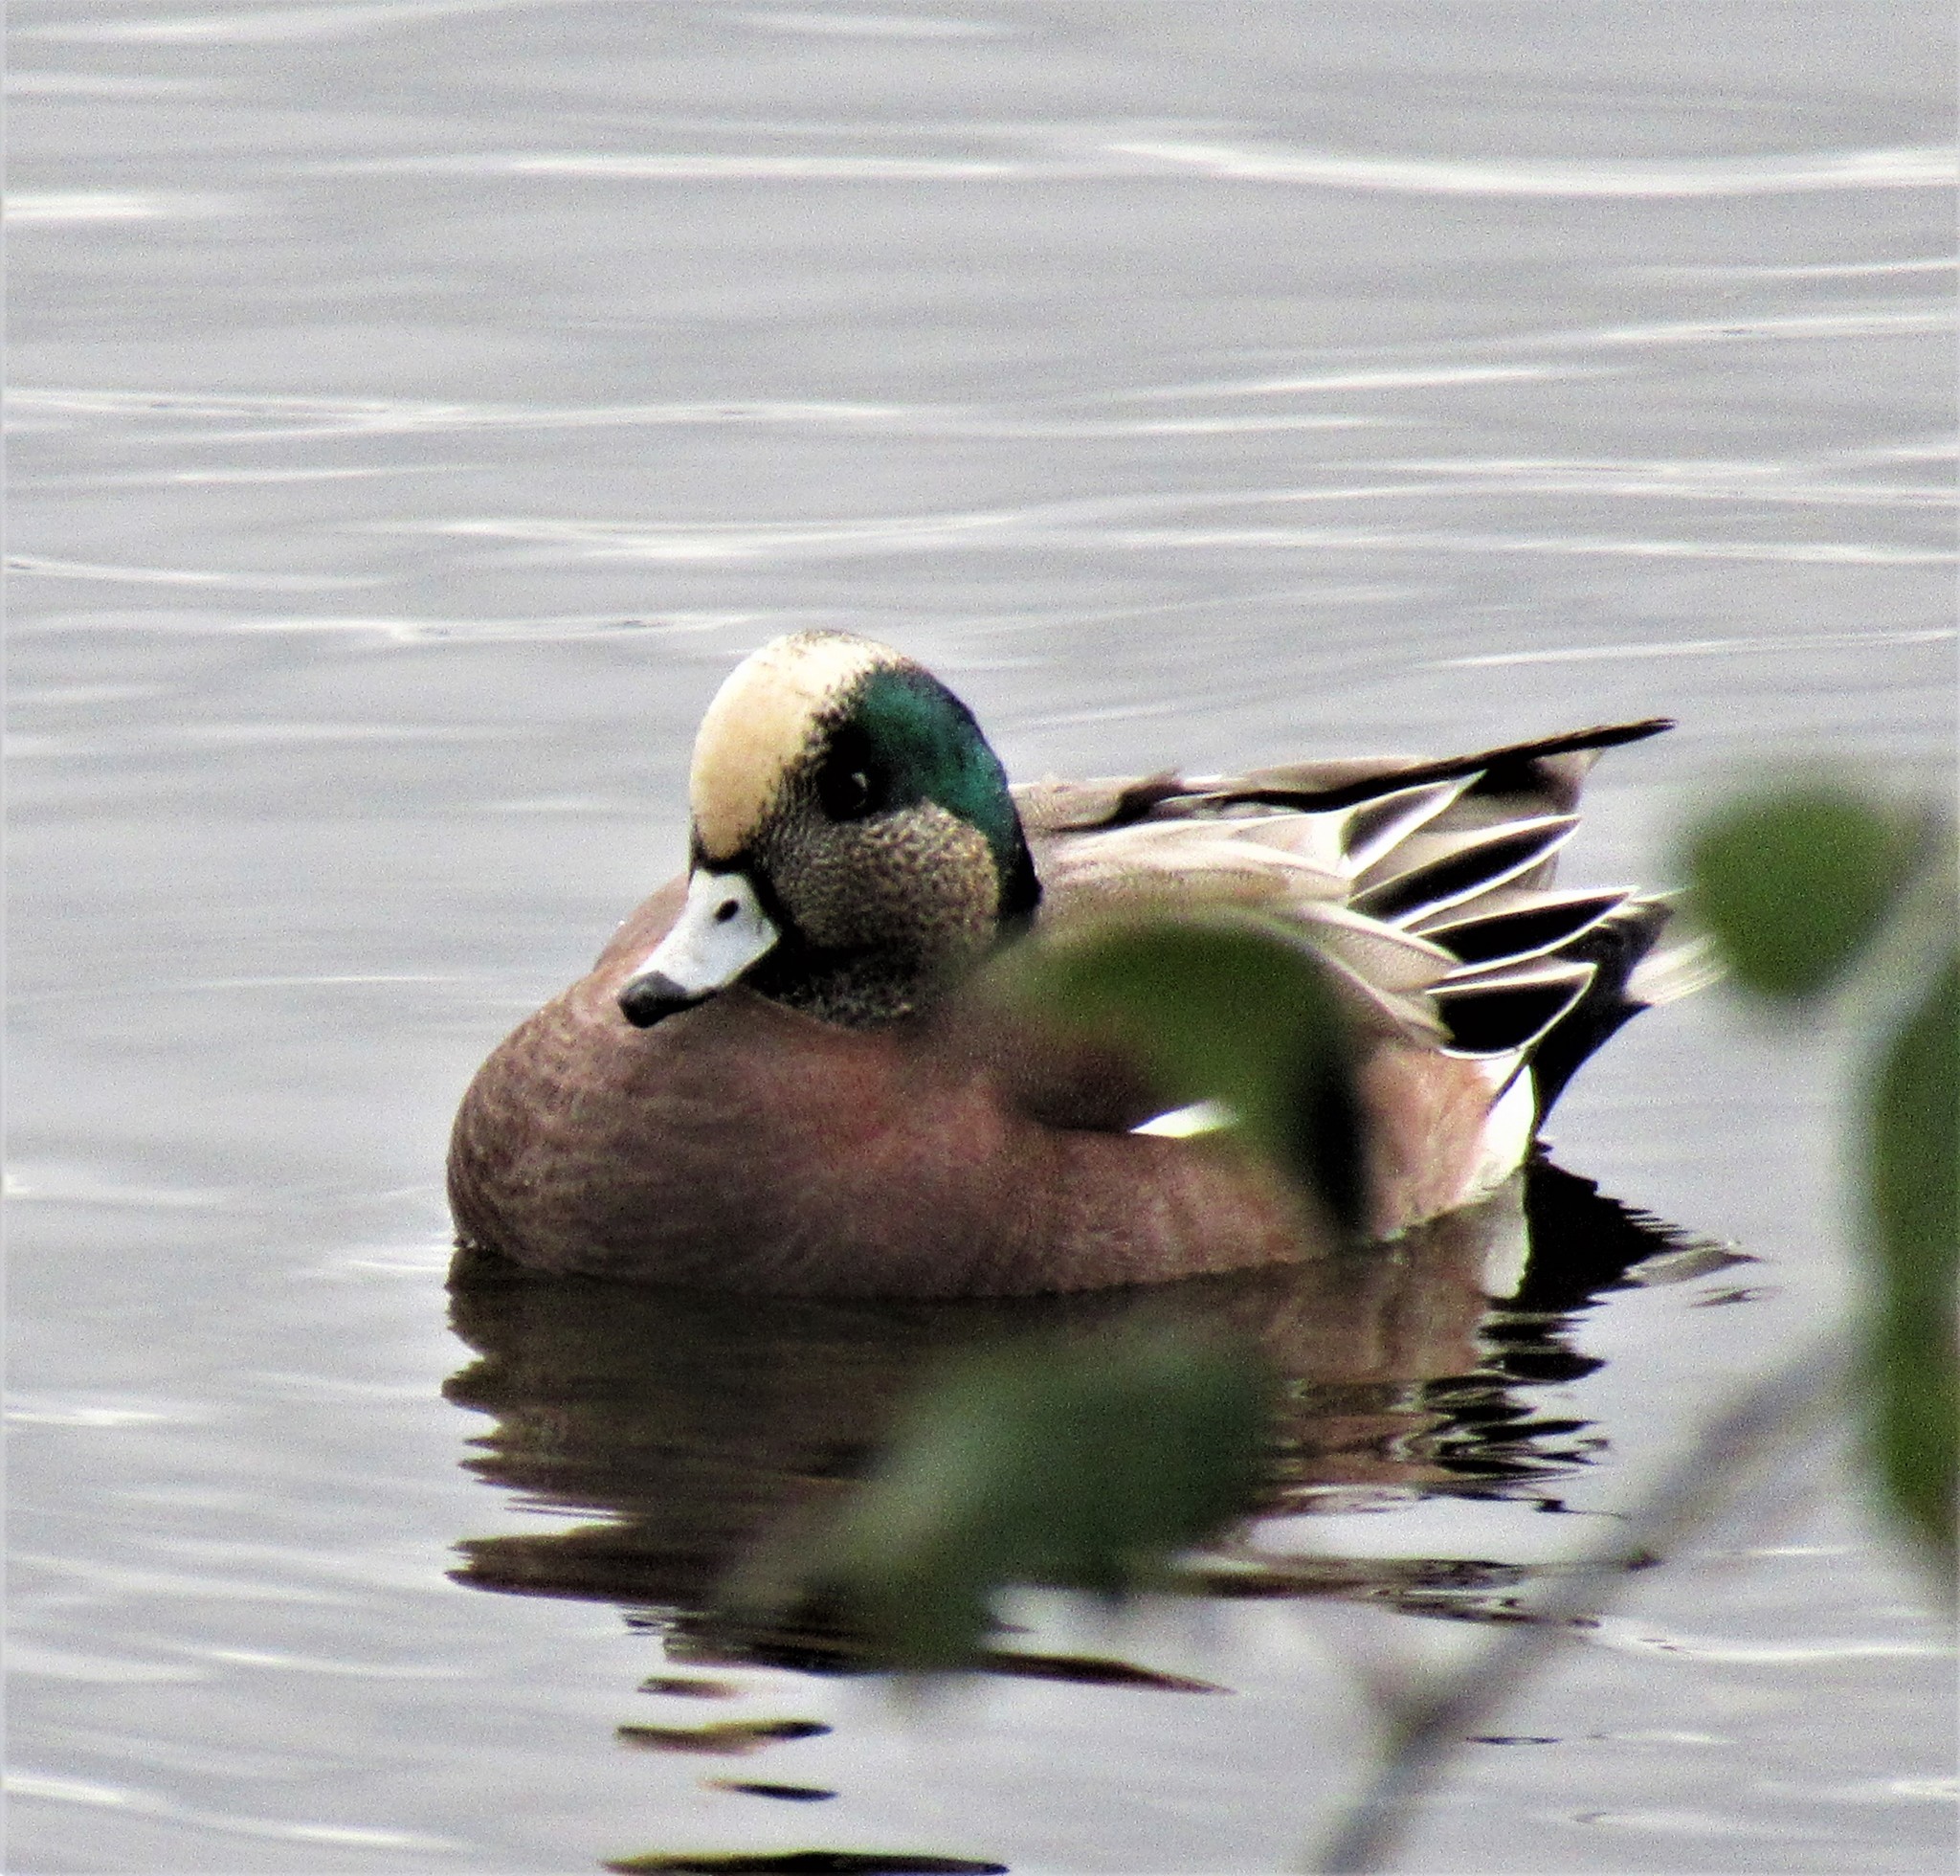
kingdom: Animalia
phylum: Chordata
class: Aves
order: Anseriformes
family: Anatidae
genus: Mareca
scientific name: Mareca americana
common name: American wigeon
